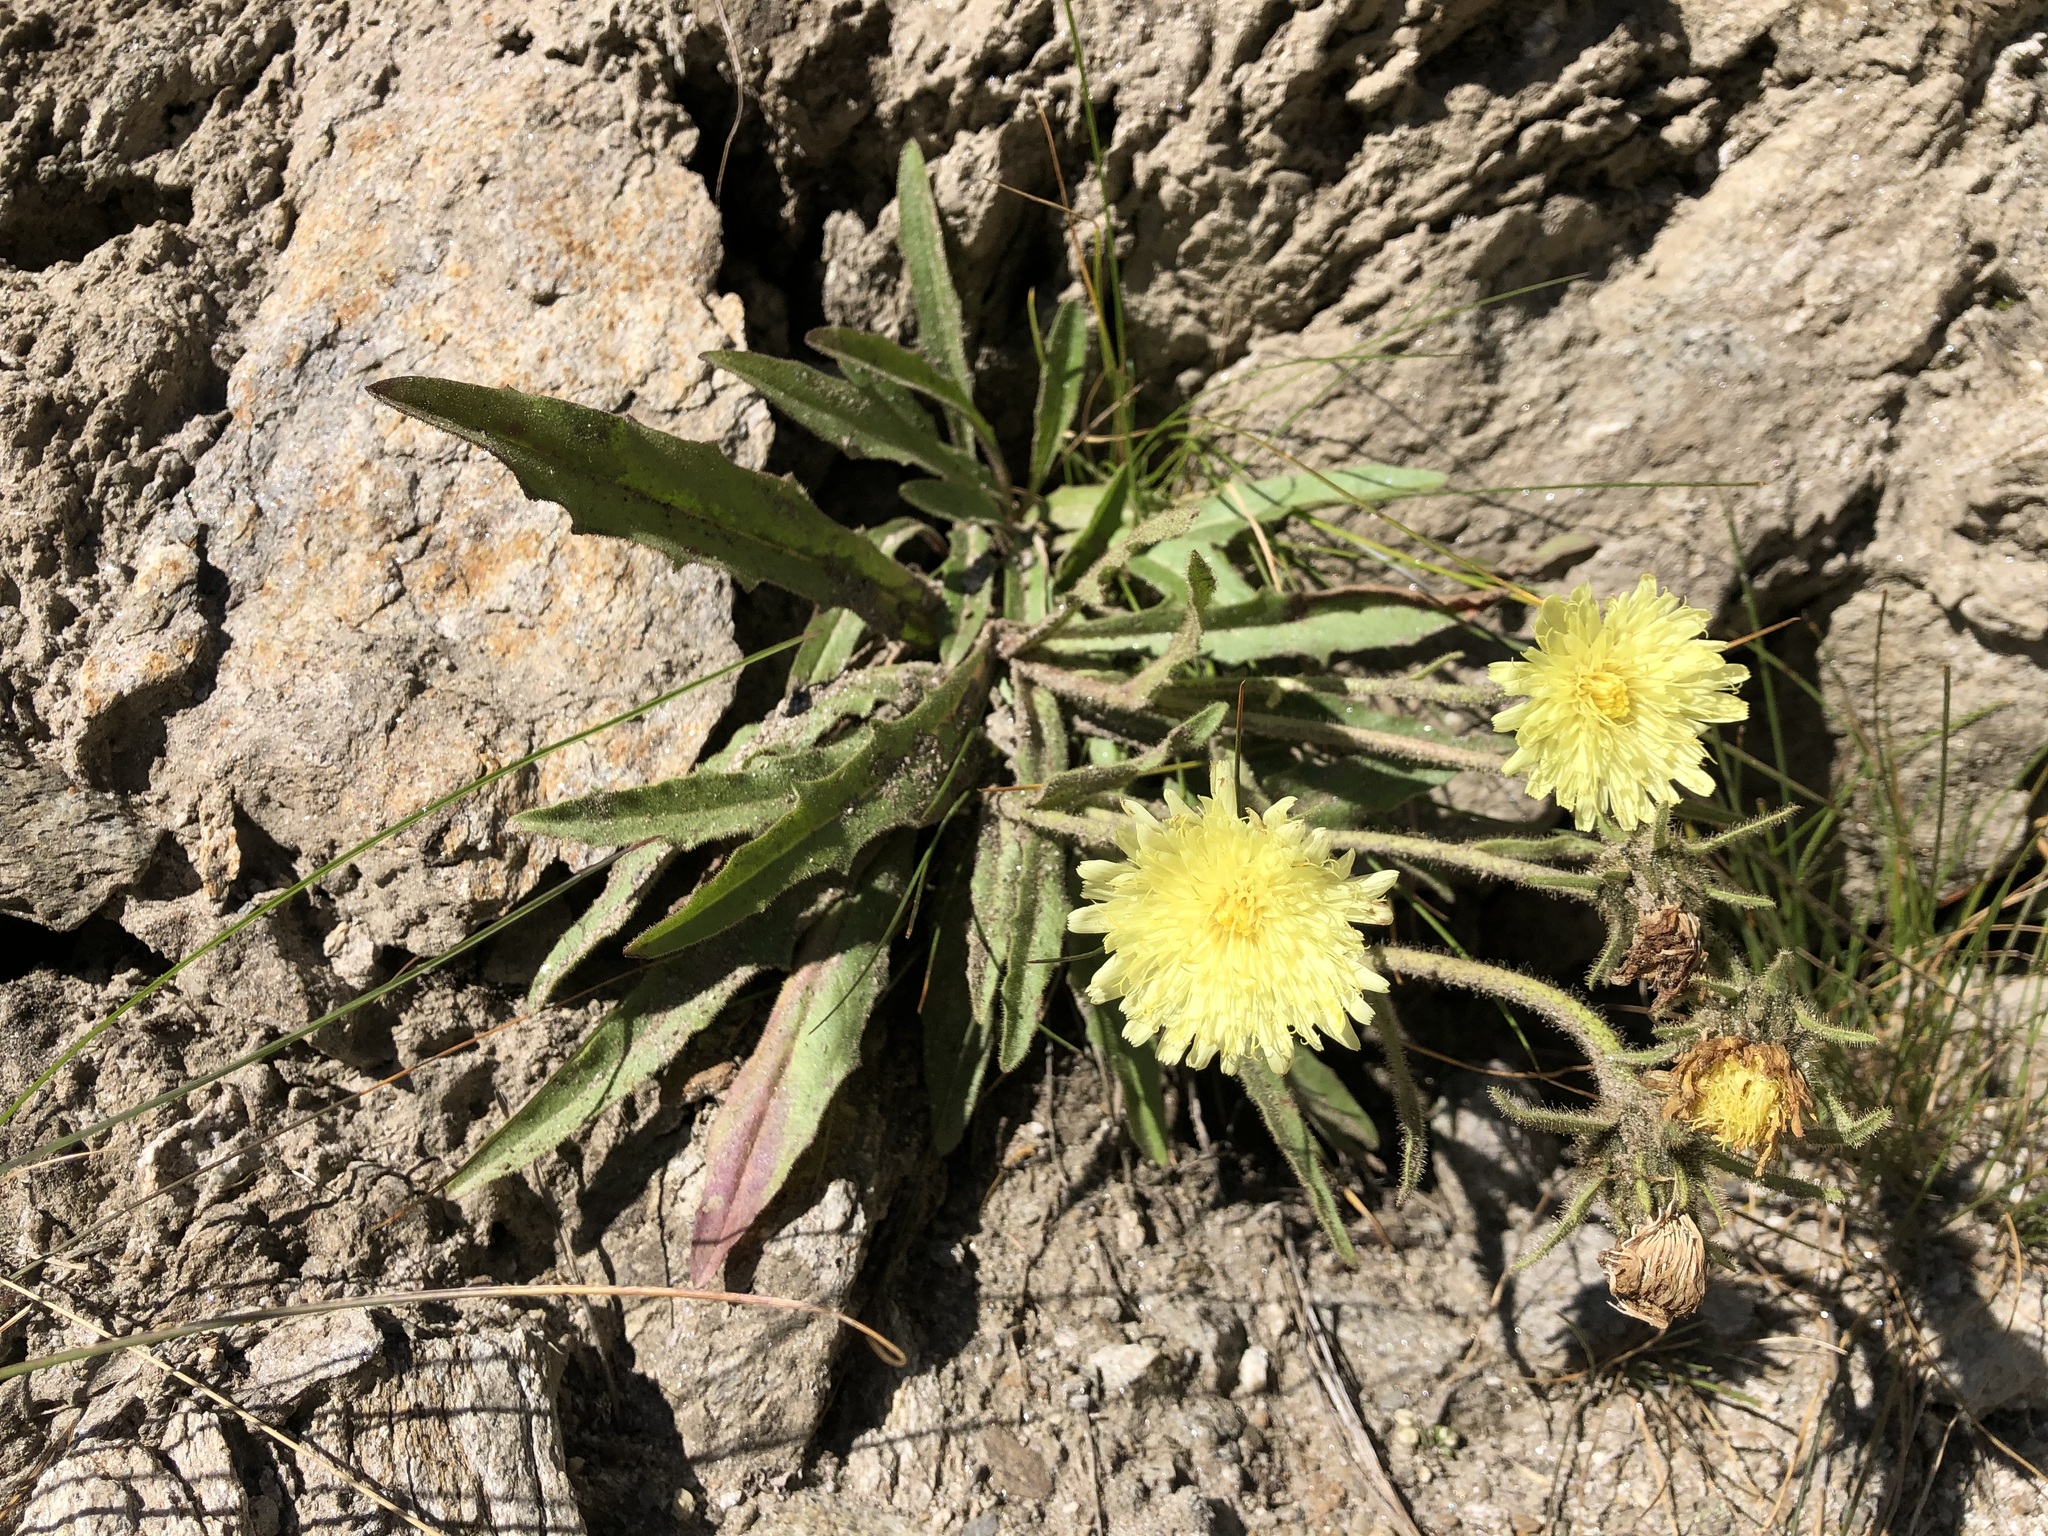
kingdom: Plantae
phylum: Tracheophyta
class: Magnoliopsida
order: Asterales
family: Asteraceae
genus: Schlagintweitia
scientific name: Schlagintweitia intybacea
